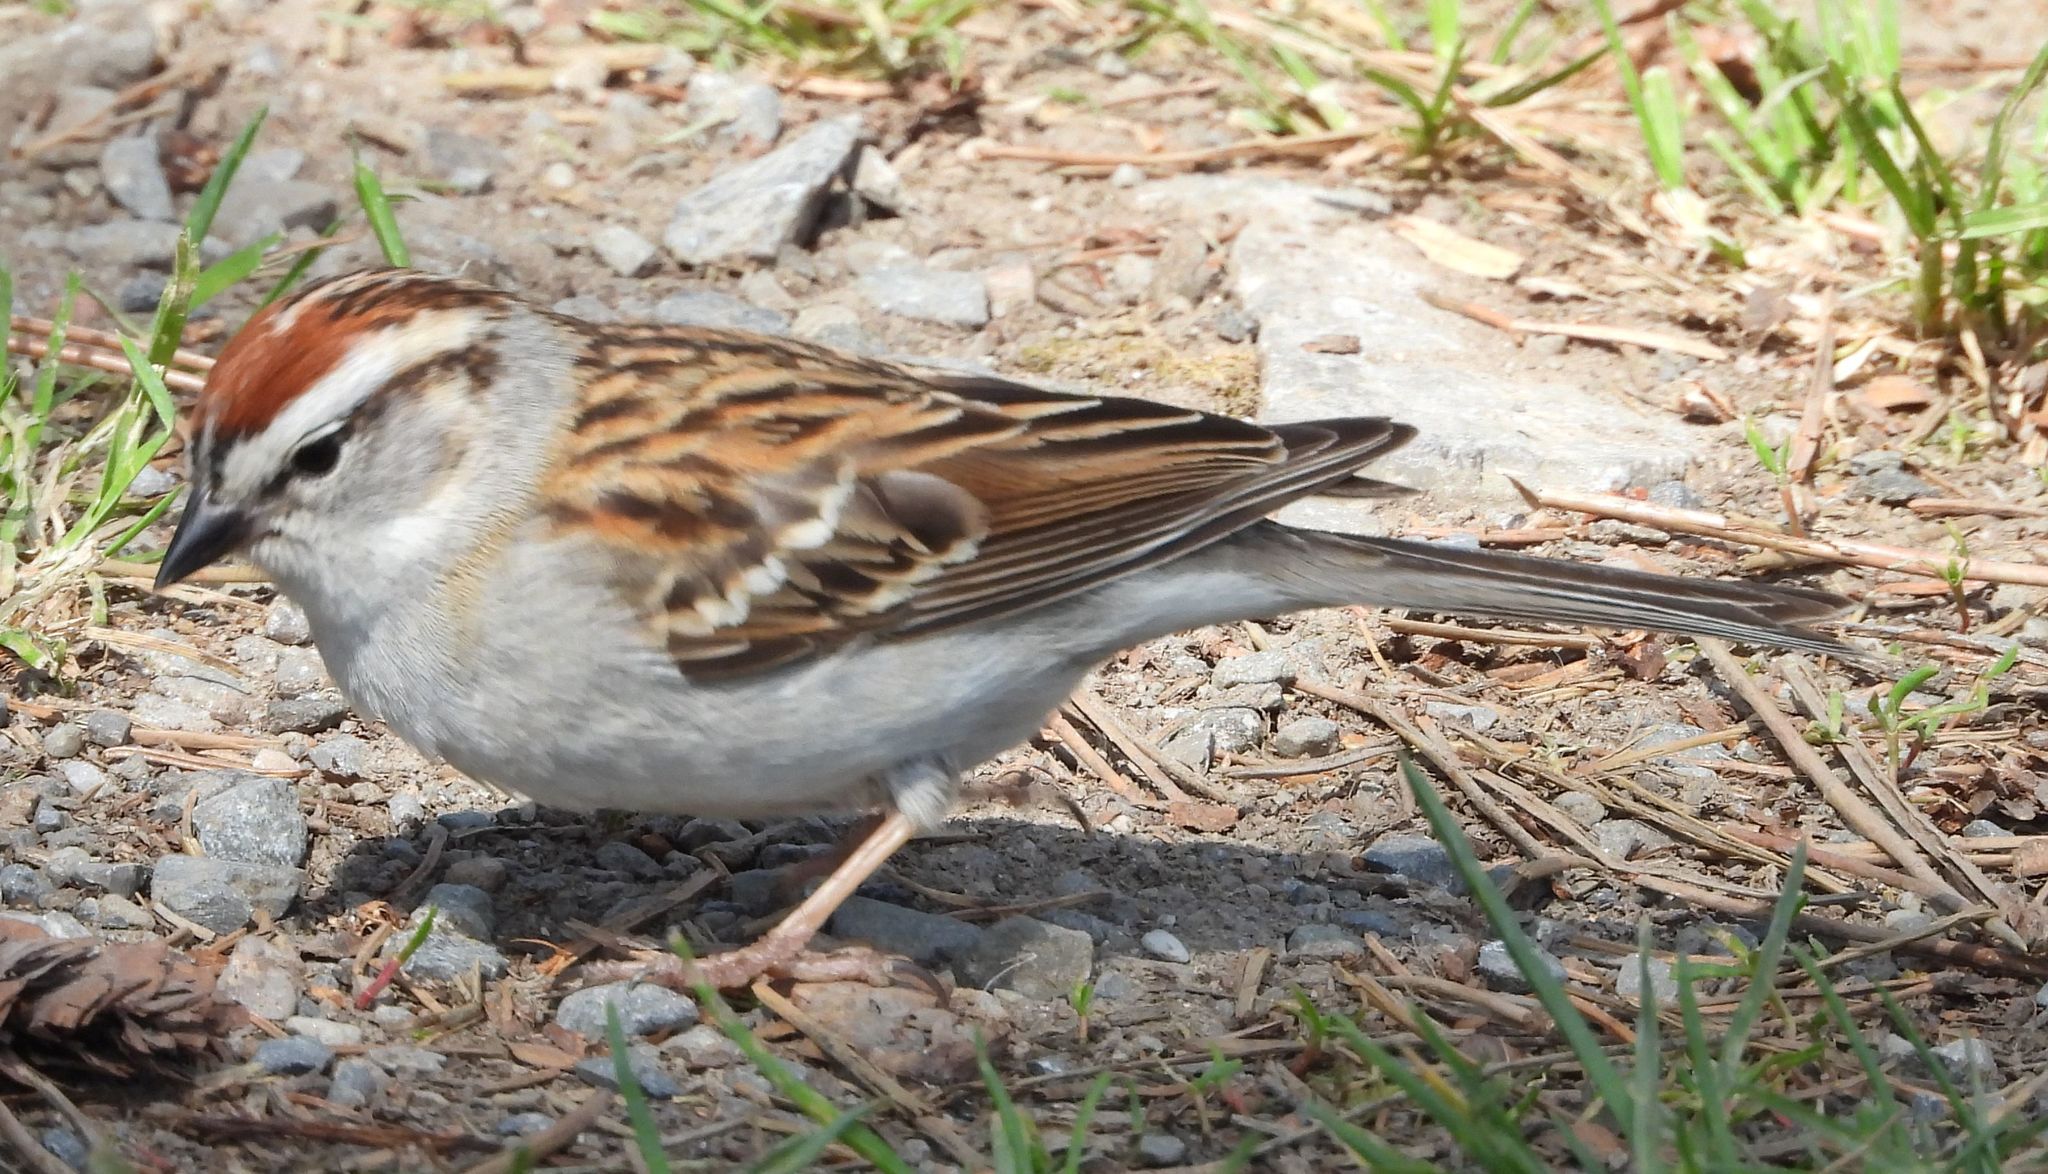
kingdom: Animalia
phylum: Chordata
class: Aves
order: Passeriformes
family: Passerellidae
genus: Spizella
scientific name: Spizella passerina
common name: Chipping sparrow
